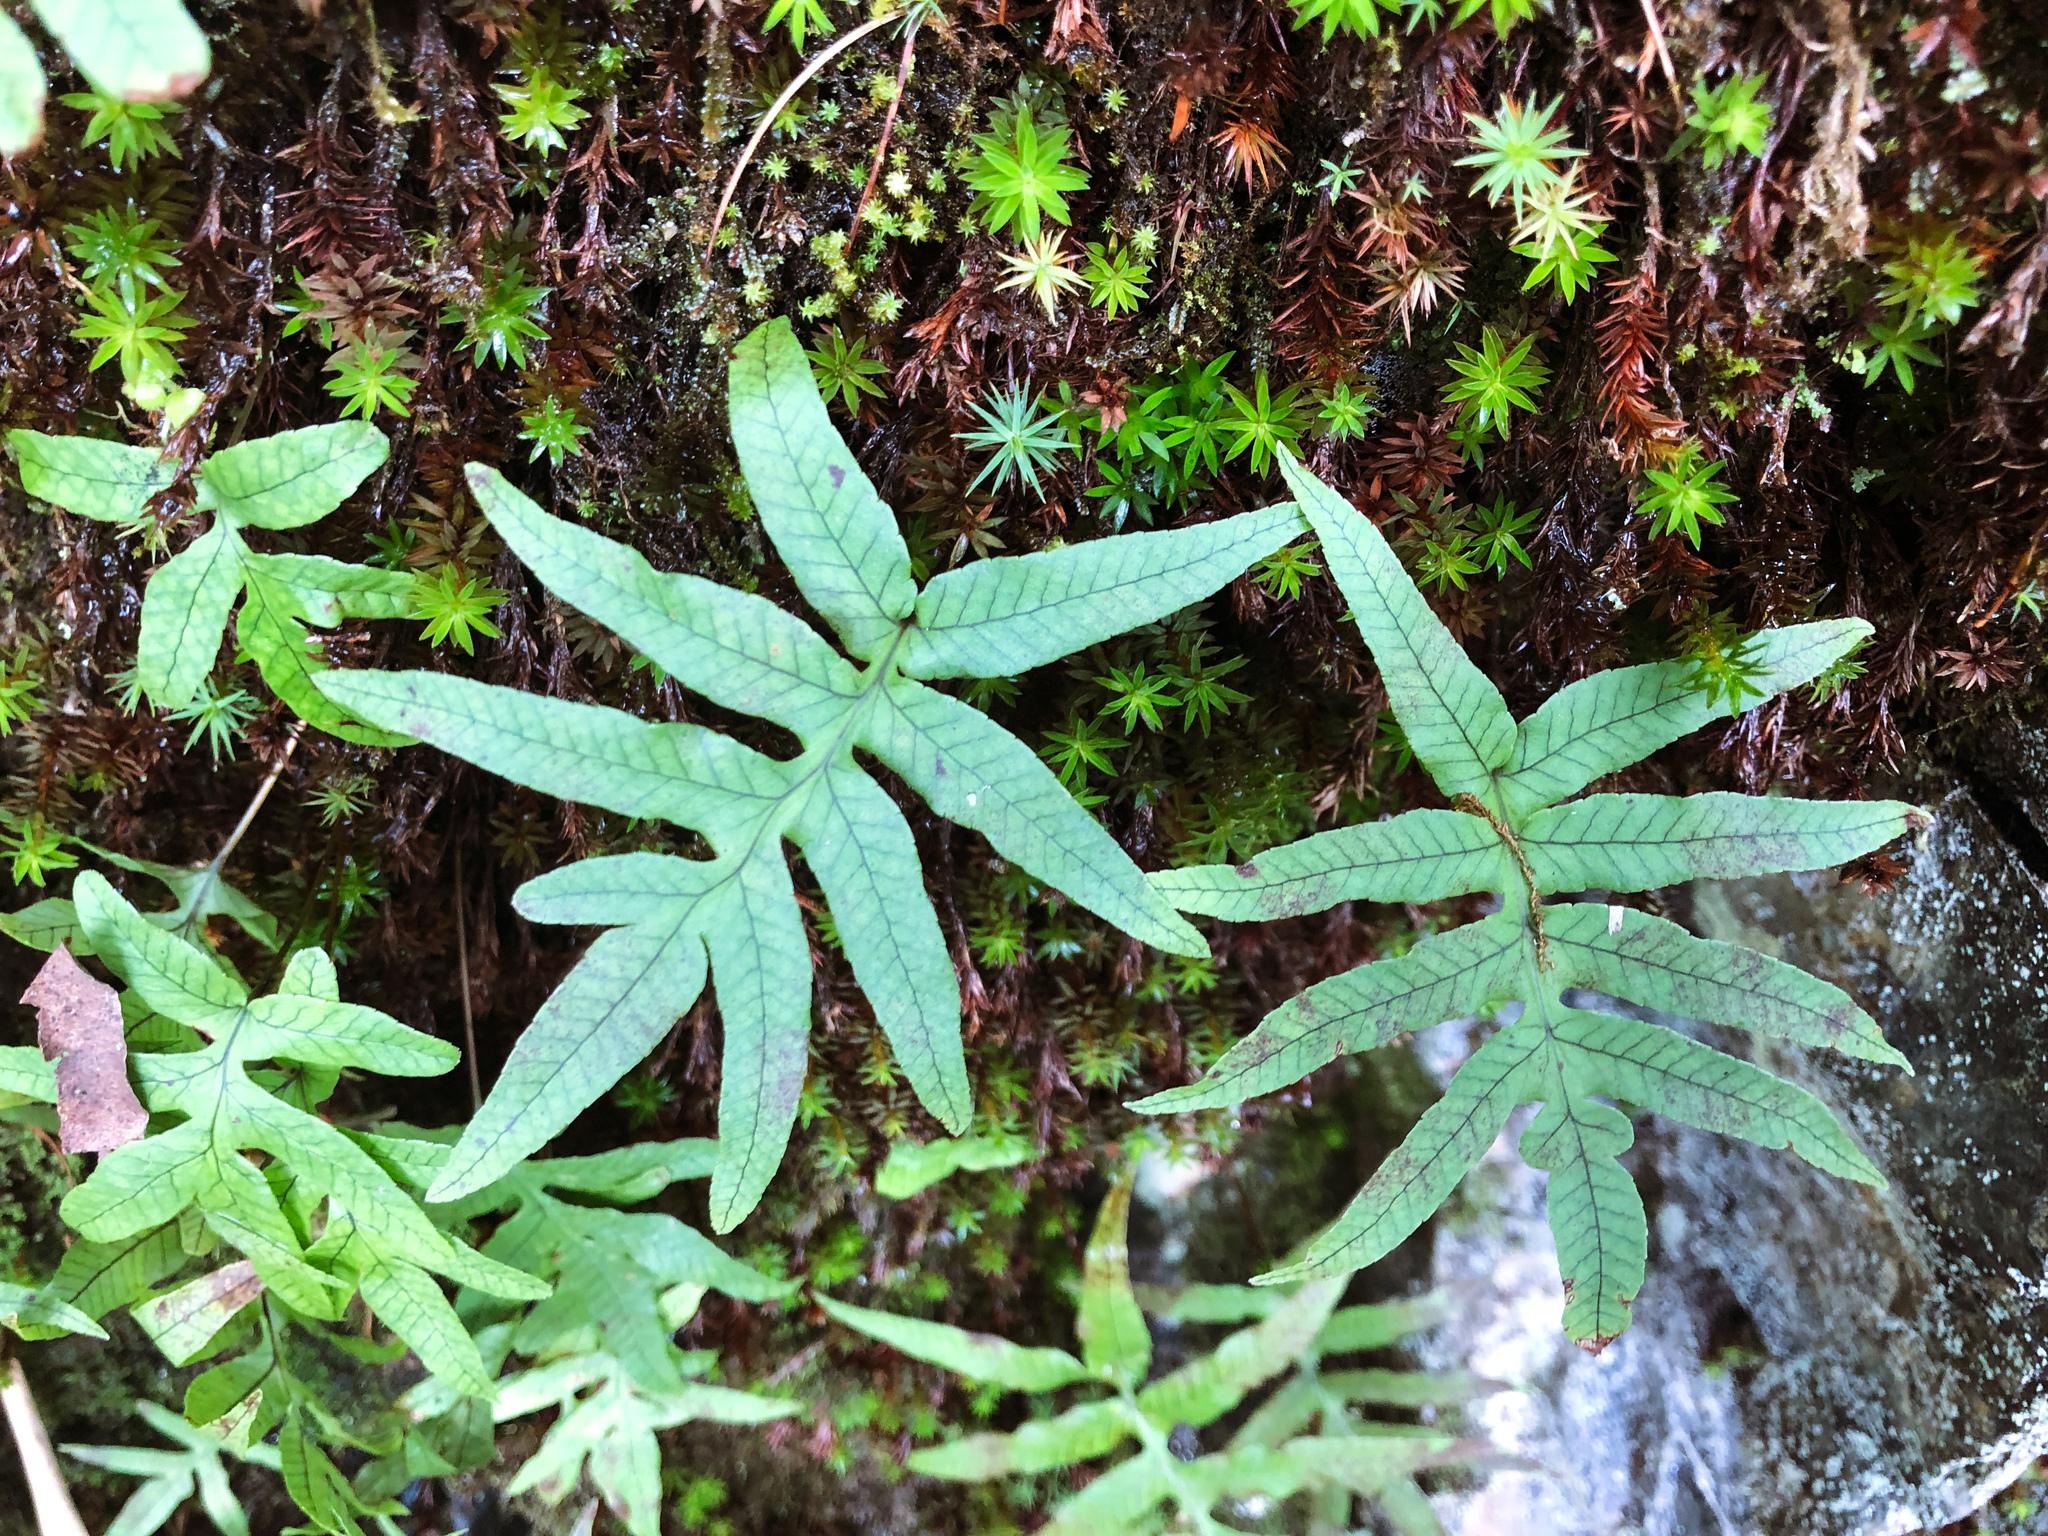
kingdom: Plantae
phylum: Tracheophyta
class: Polypodiopsida
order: Polypodiales
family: Polypodiaceae
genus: Selliguea
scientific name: Selliguea quasidivaricata
